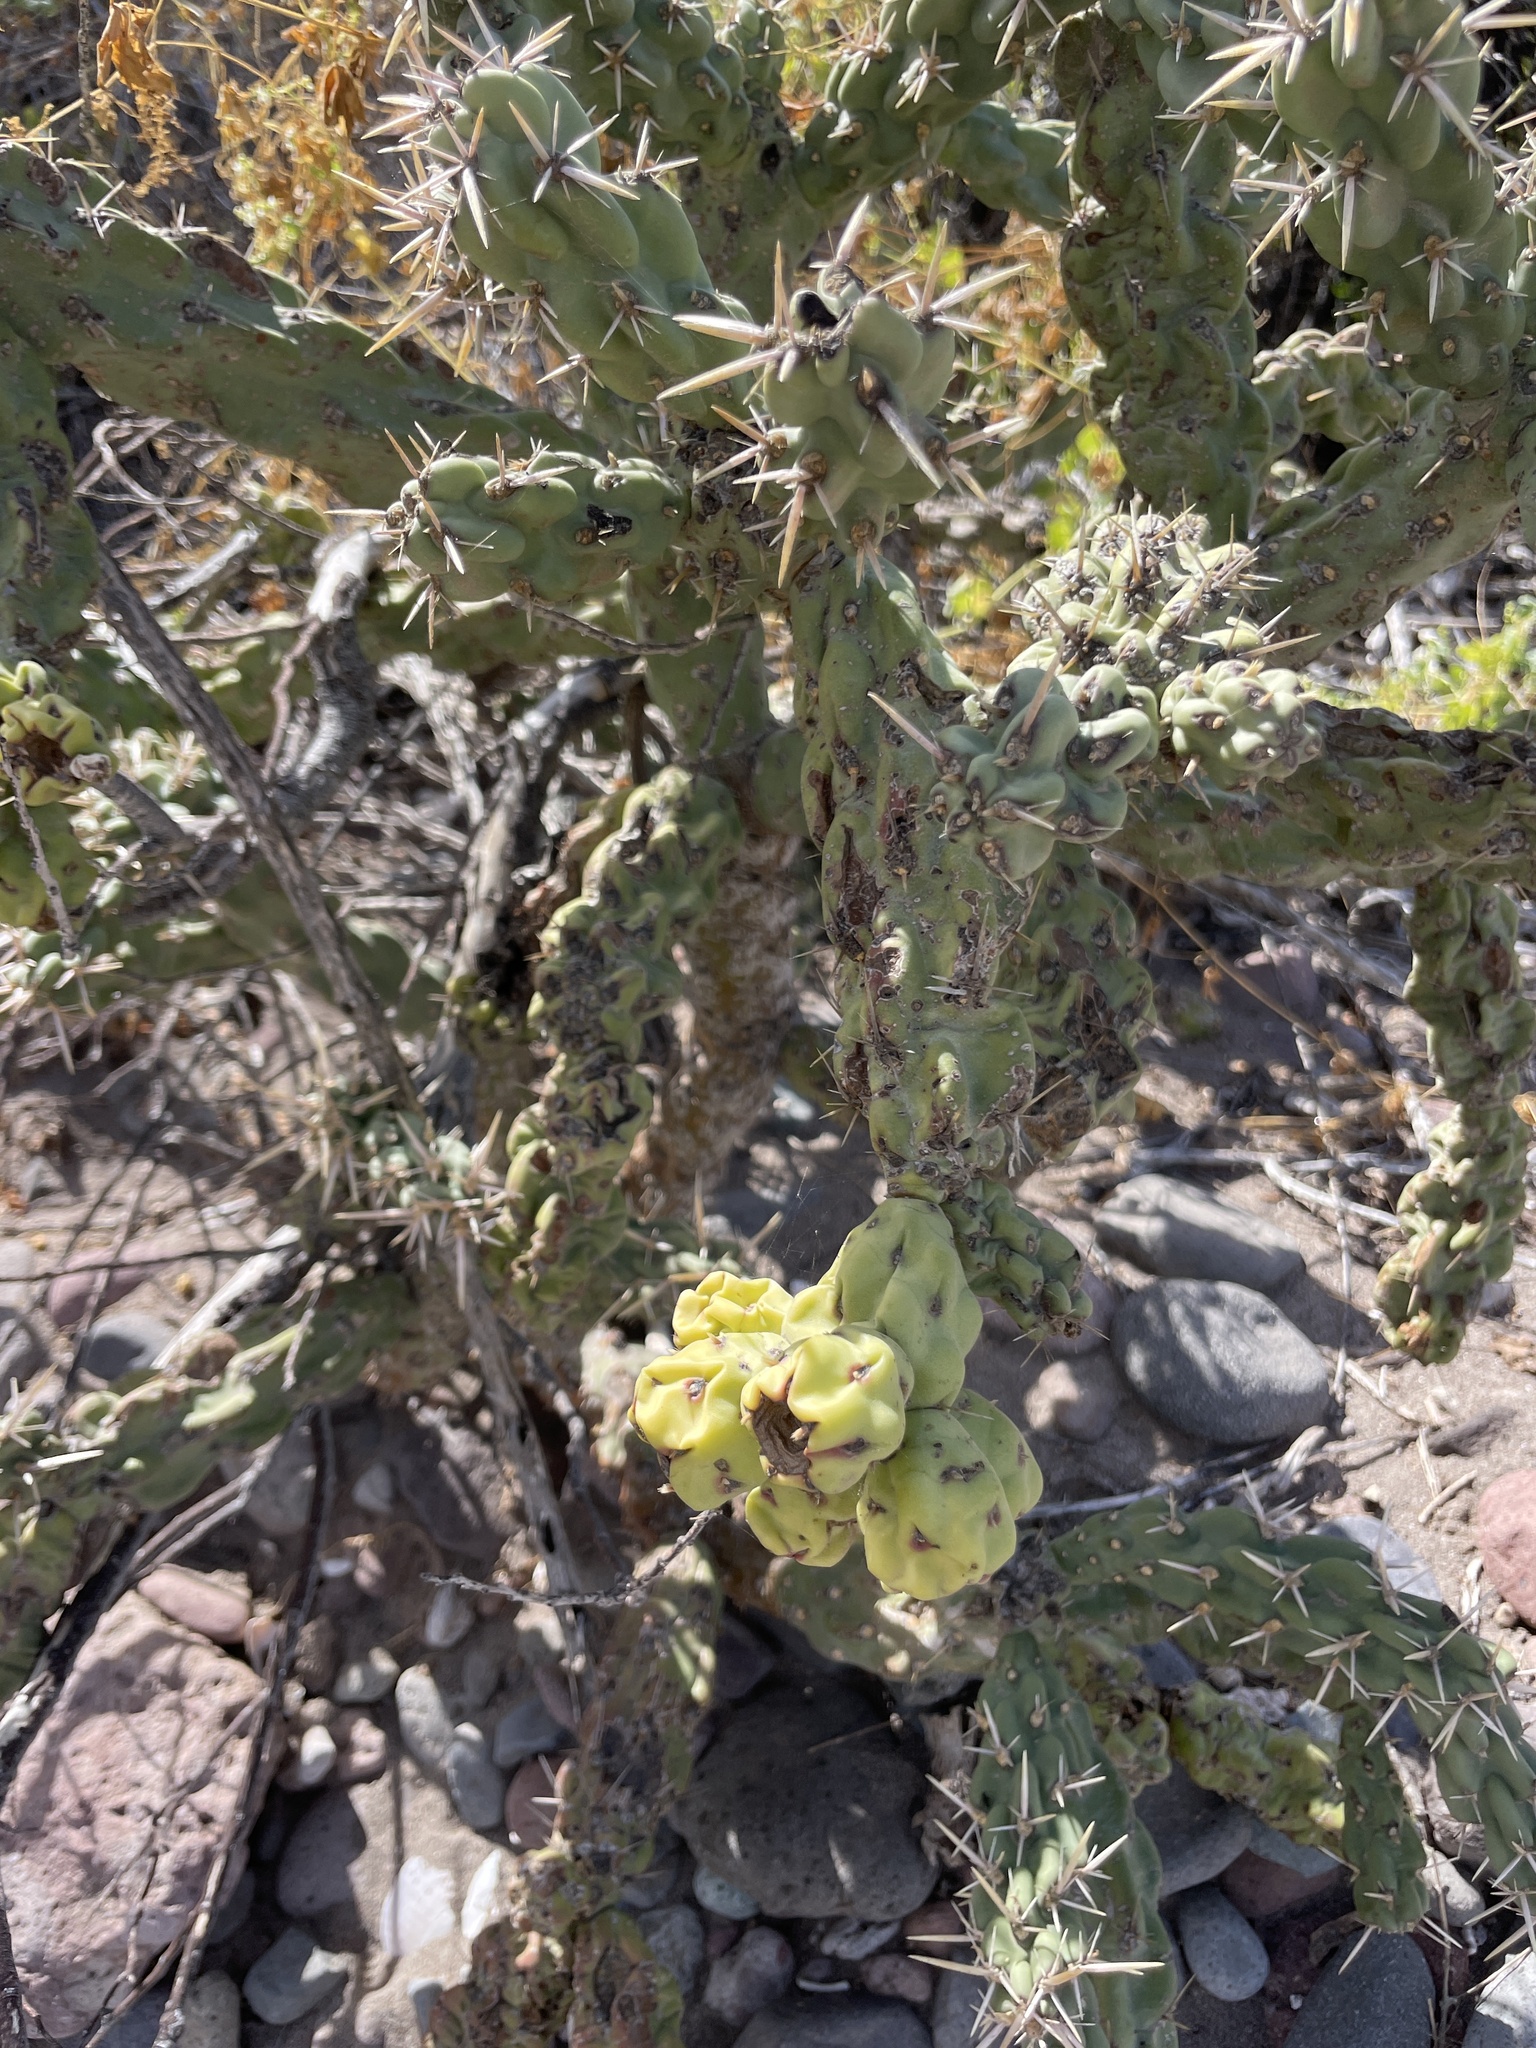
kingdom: Plantae
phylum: Tracheophyta
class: Magnoliopsida
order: Caryophyllales
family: Cactaceae
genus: Cylindropuntia
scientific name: Cylindropuntia cholla
